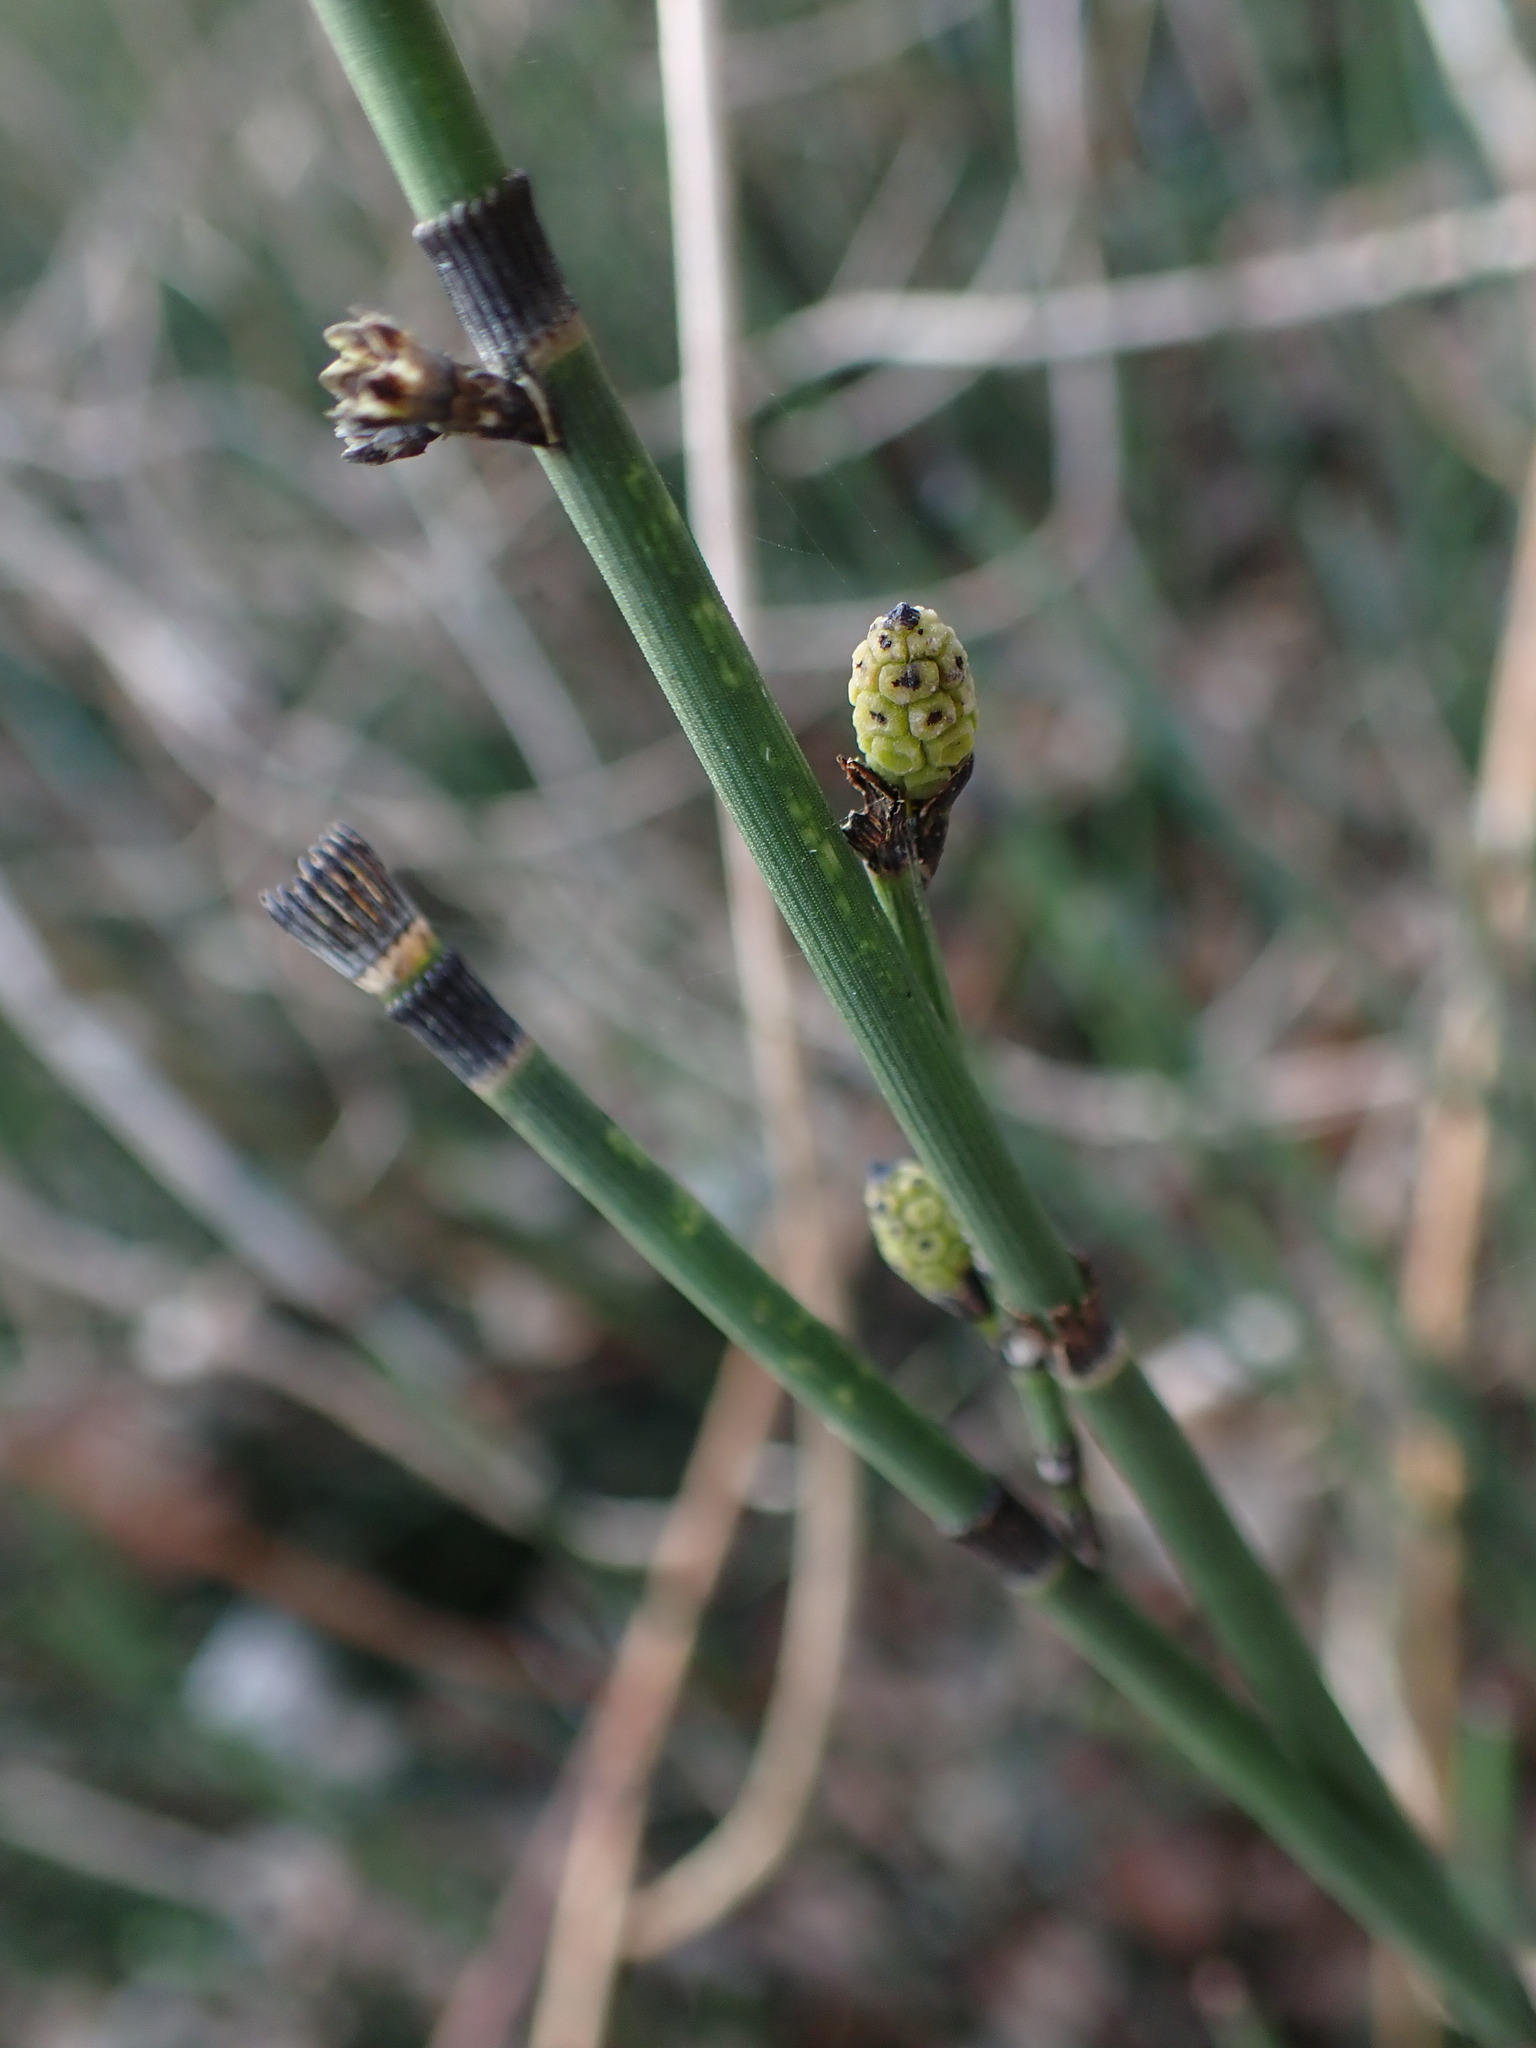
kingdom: Plantae
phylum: Tracheophyta
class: Polypodiopsida
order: Equisetales
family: Equisetaceae
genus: Equisetum
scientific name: Equisetum hyemale
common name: Rough horsetail
